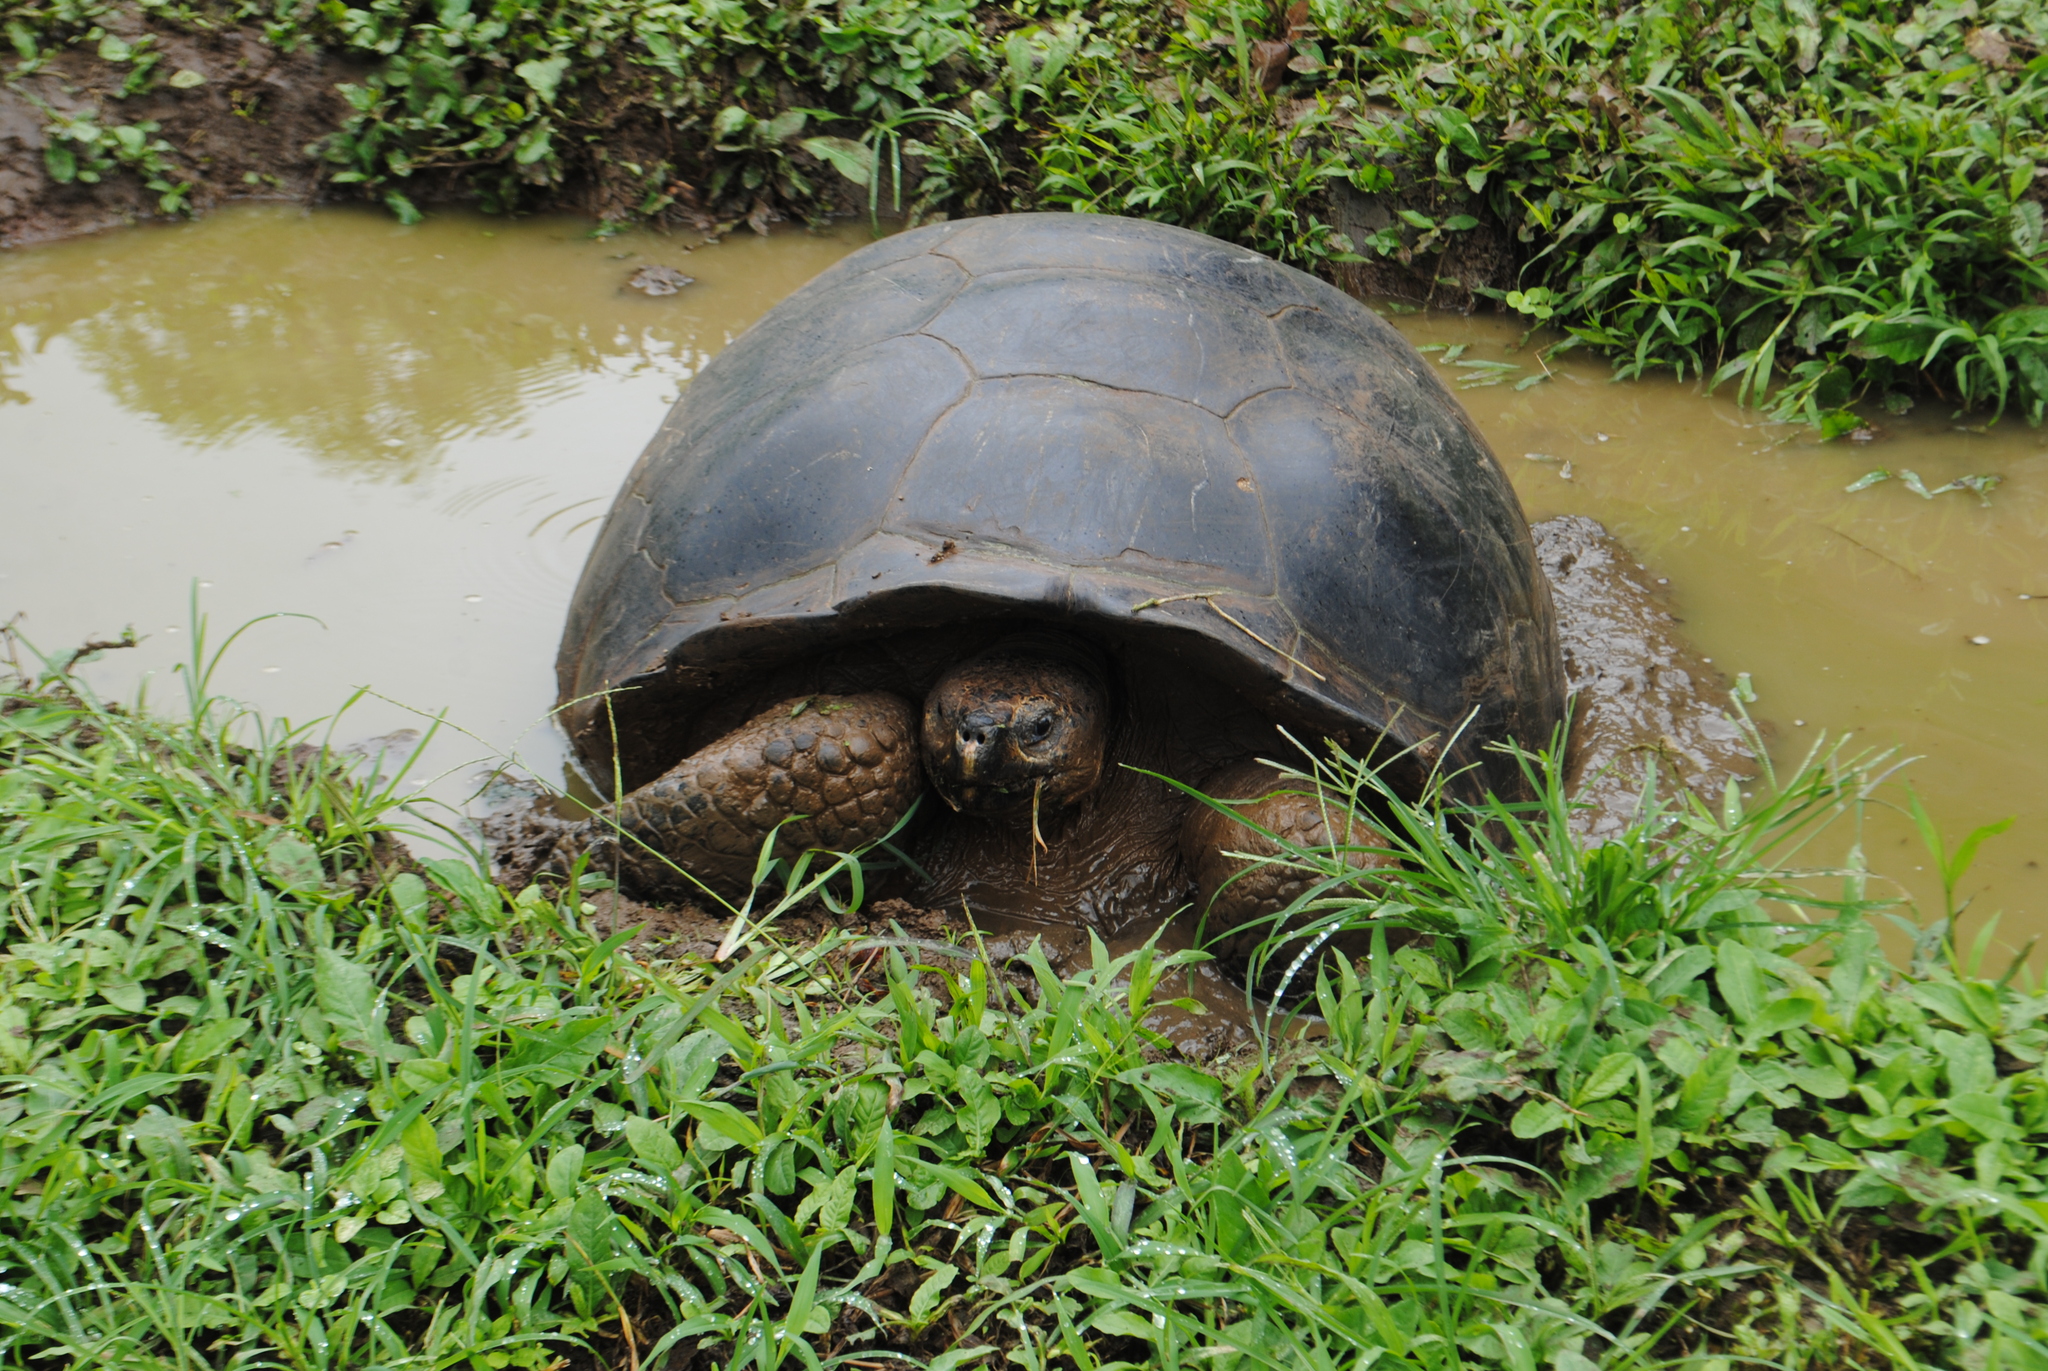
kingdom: Animalia
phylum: Chordata
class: Testudines
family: Testudinidae
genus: Chelonoidis
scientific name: Chelonoidis niger
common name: Charles island giant tortoise
